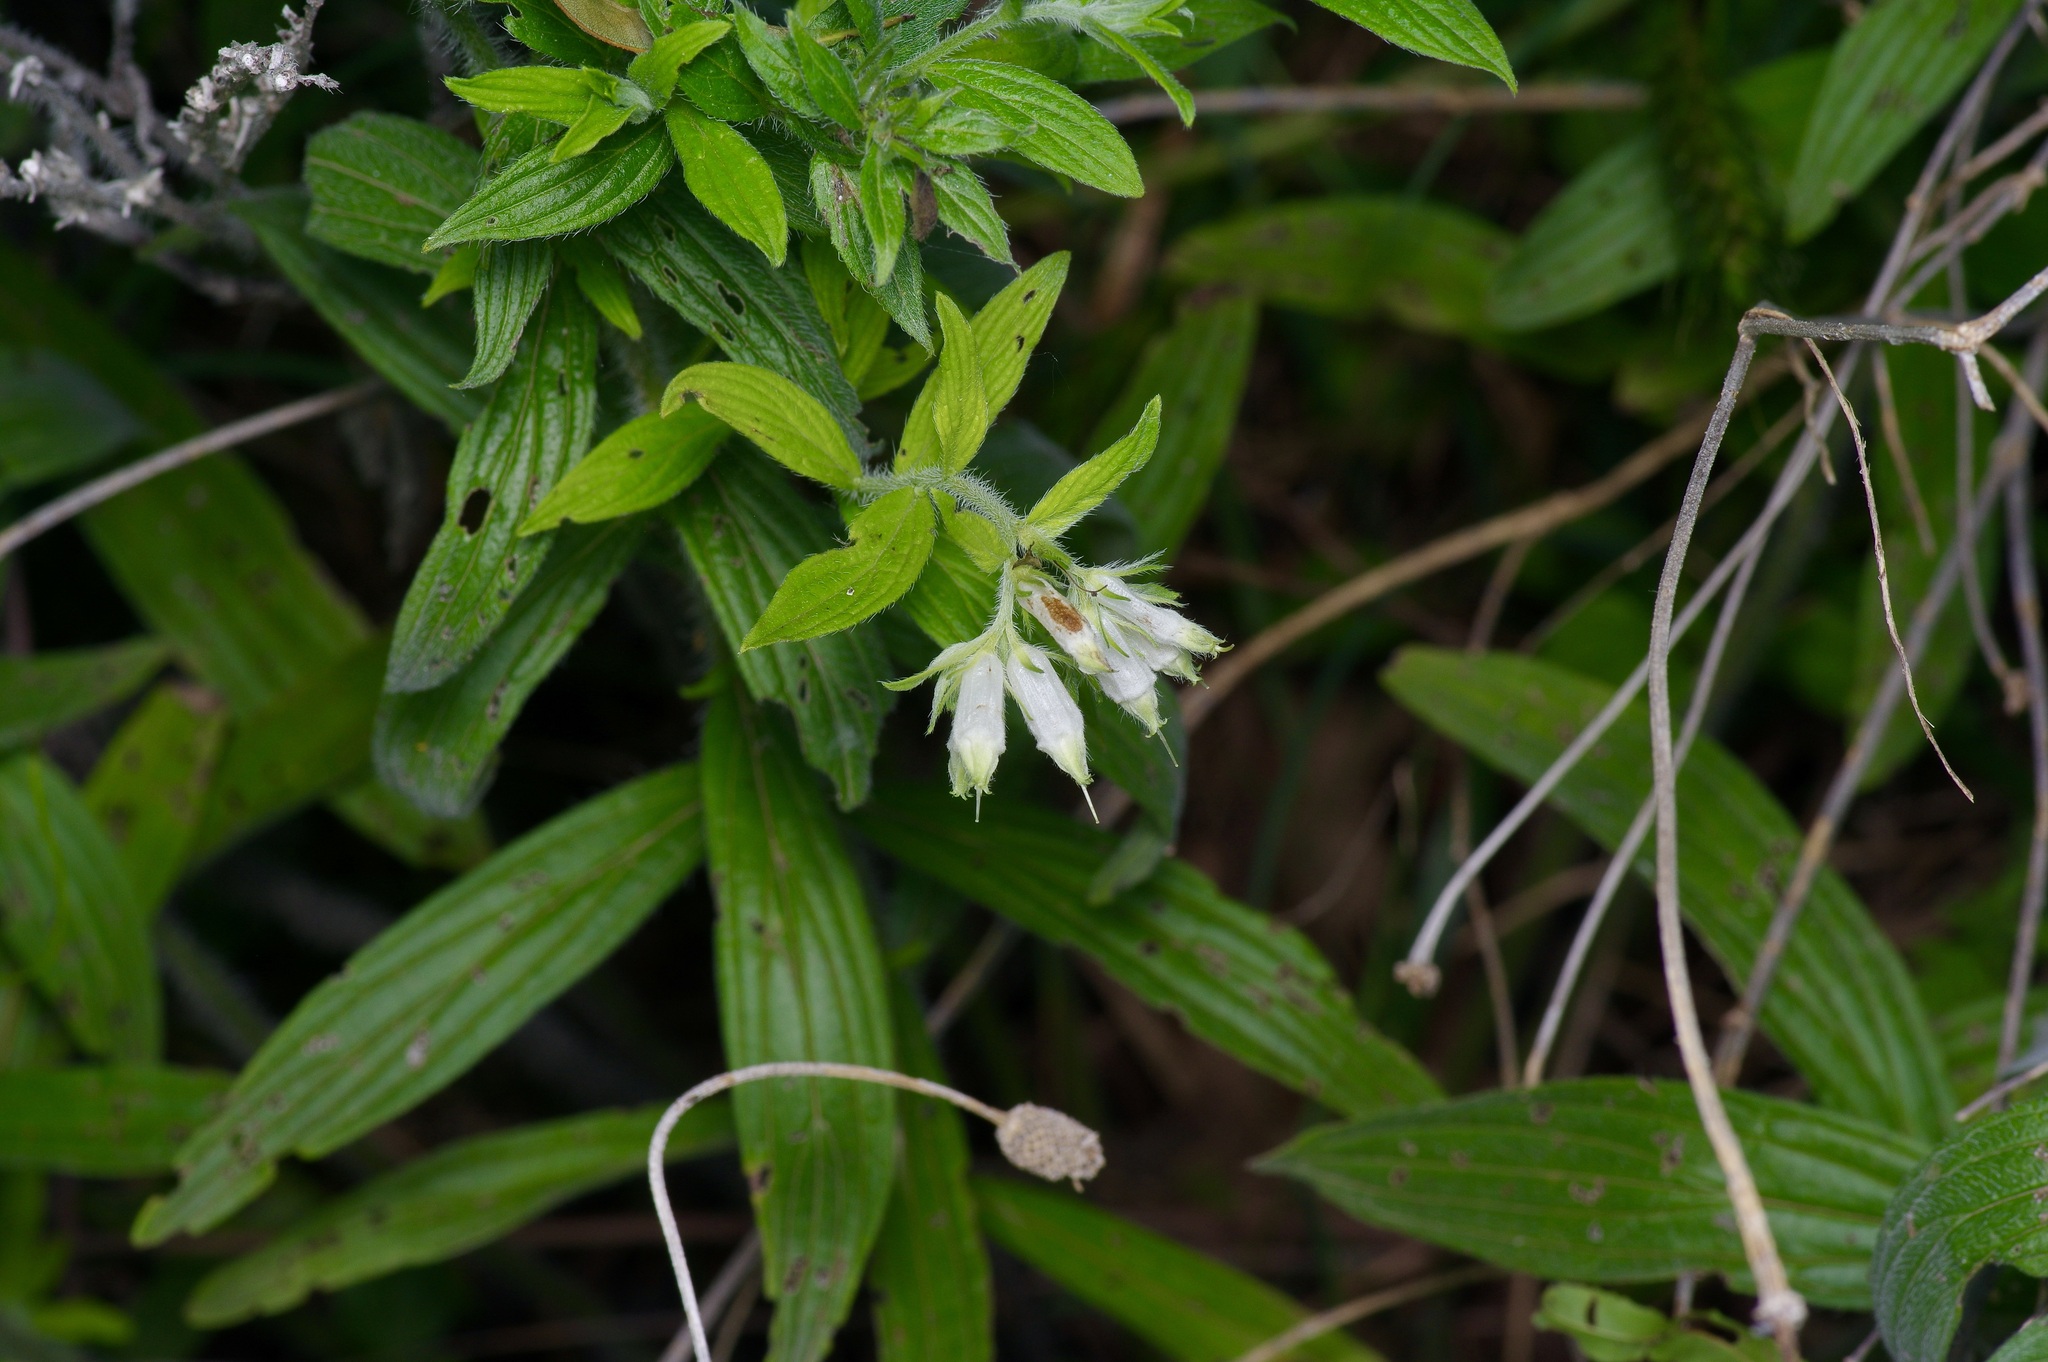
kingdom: Plantae
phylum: Tracheophyta
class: Magnoliopsida
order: Boraginales
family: Boraginaceae
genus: Lithospermum
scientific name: Lithospermum caroliniense
